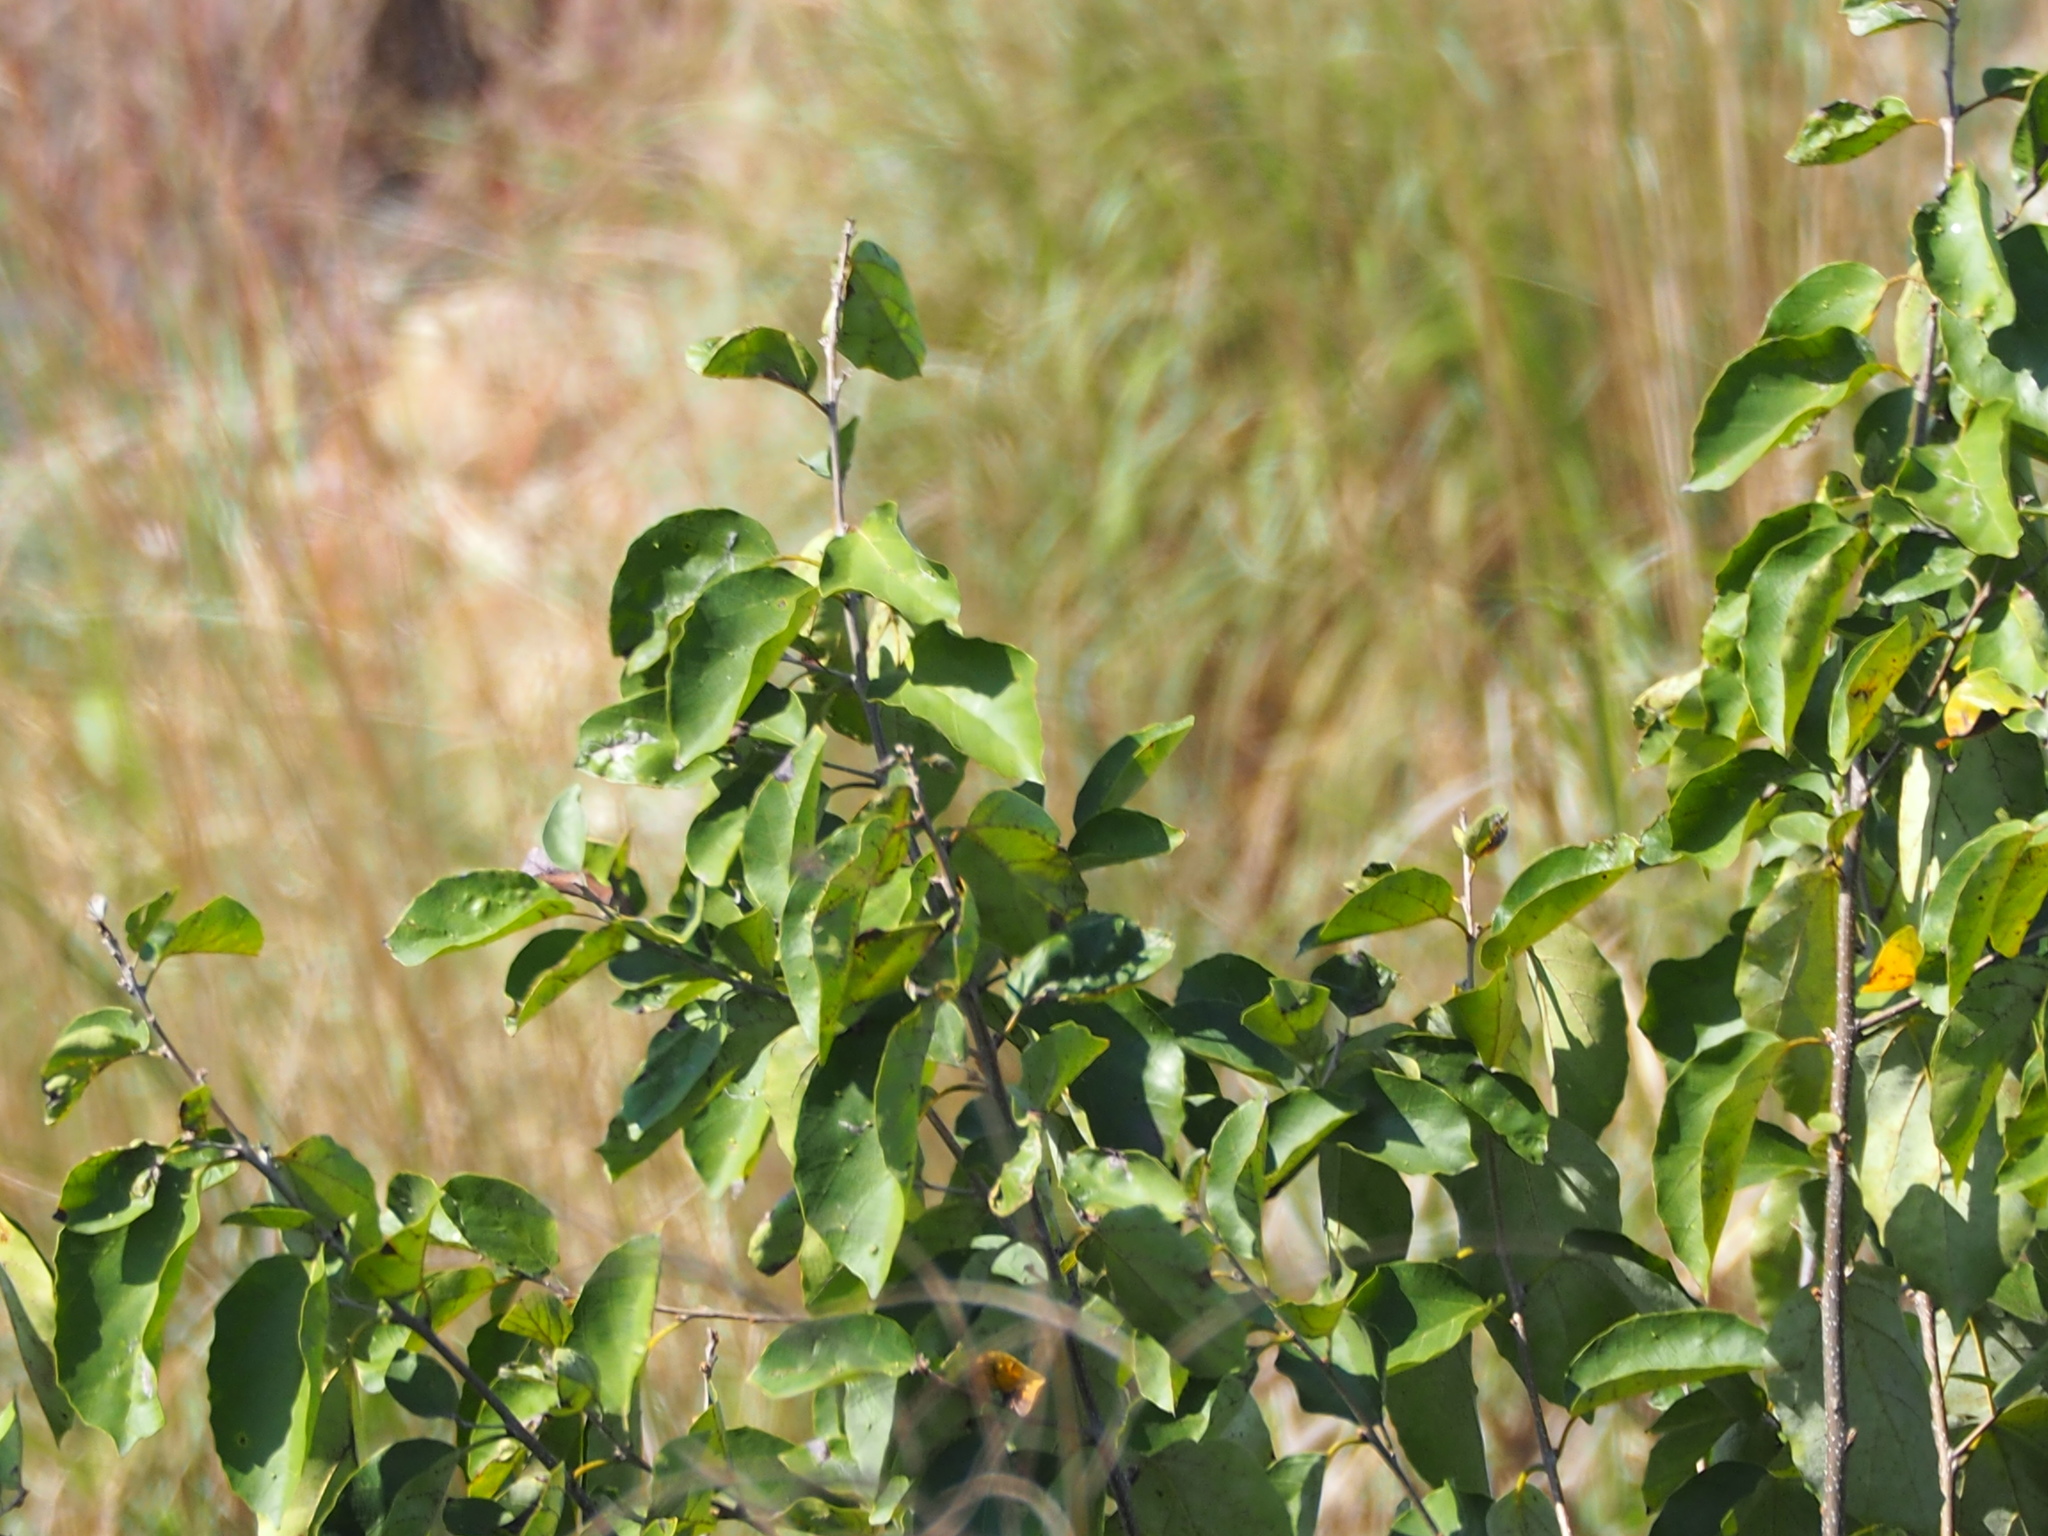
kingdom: Plantae
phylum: Tracheophyta
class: Magnoliopsida
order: Boraginales
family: Cordiaceae
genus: Cordia
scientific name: Cordia dichotoma
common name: Fragrant manjack
